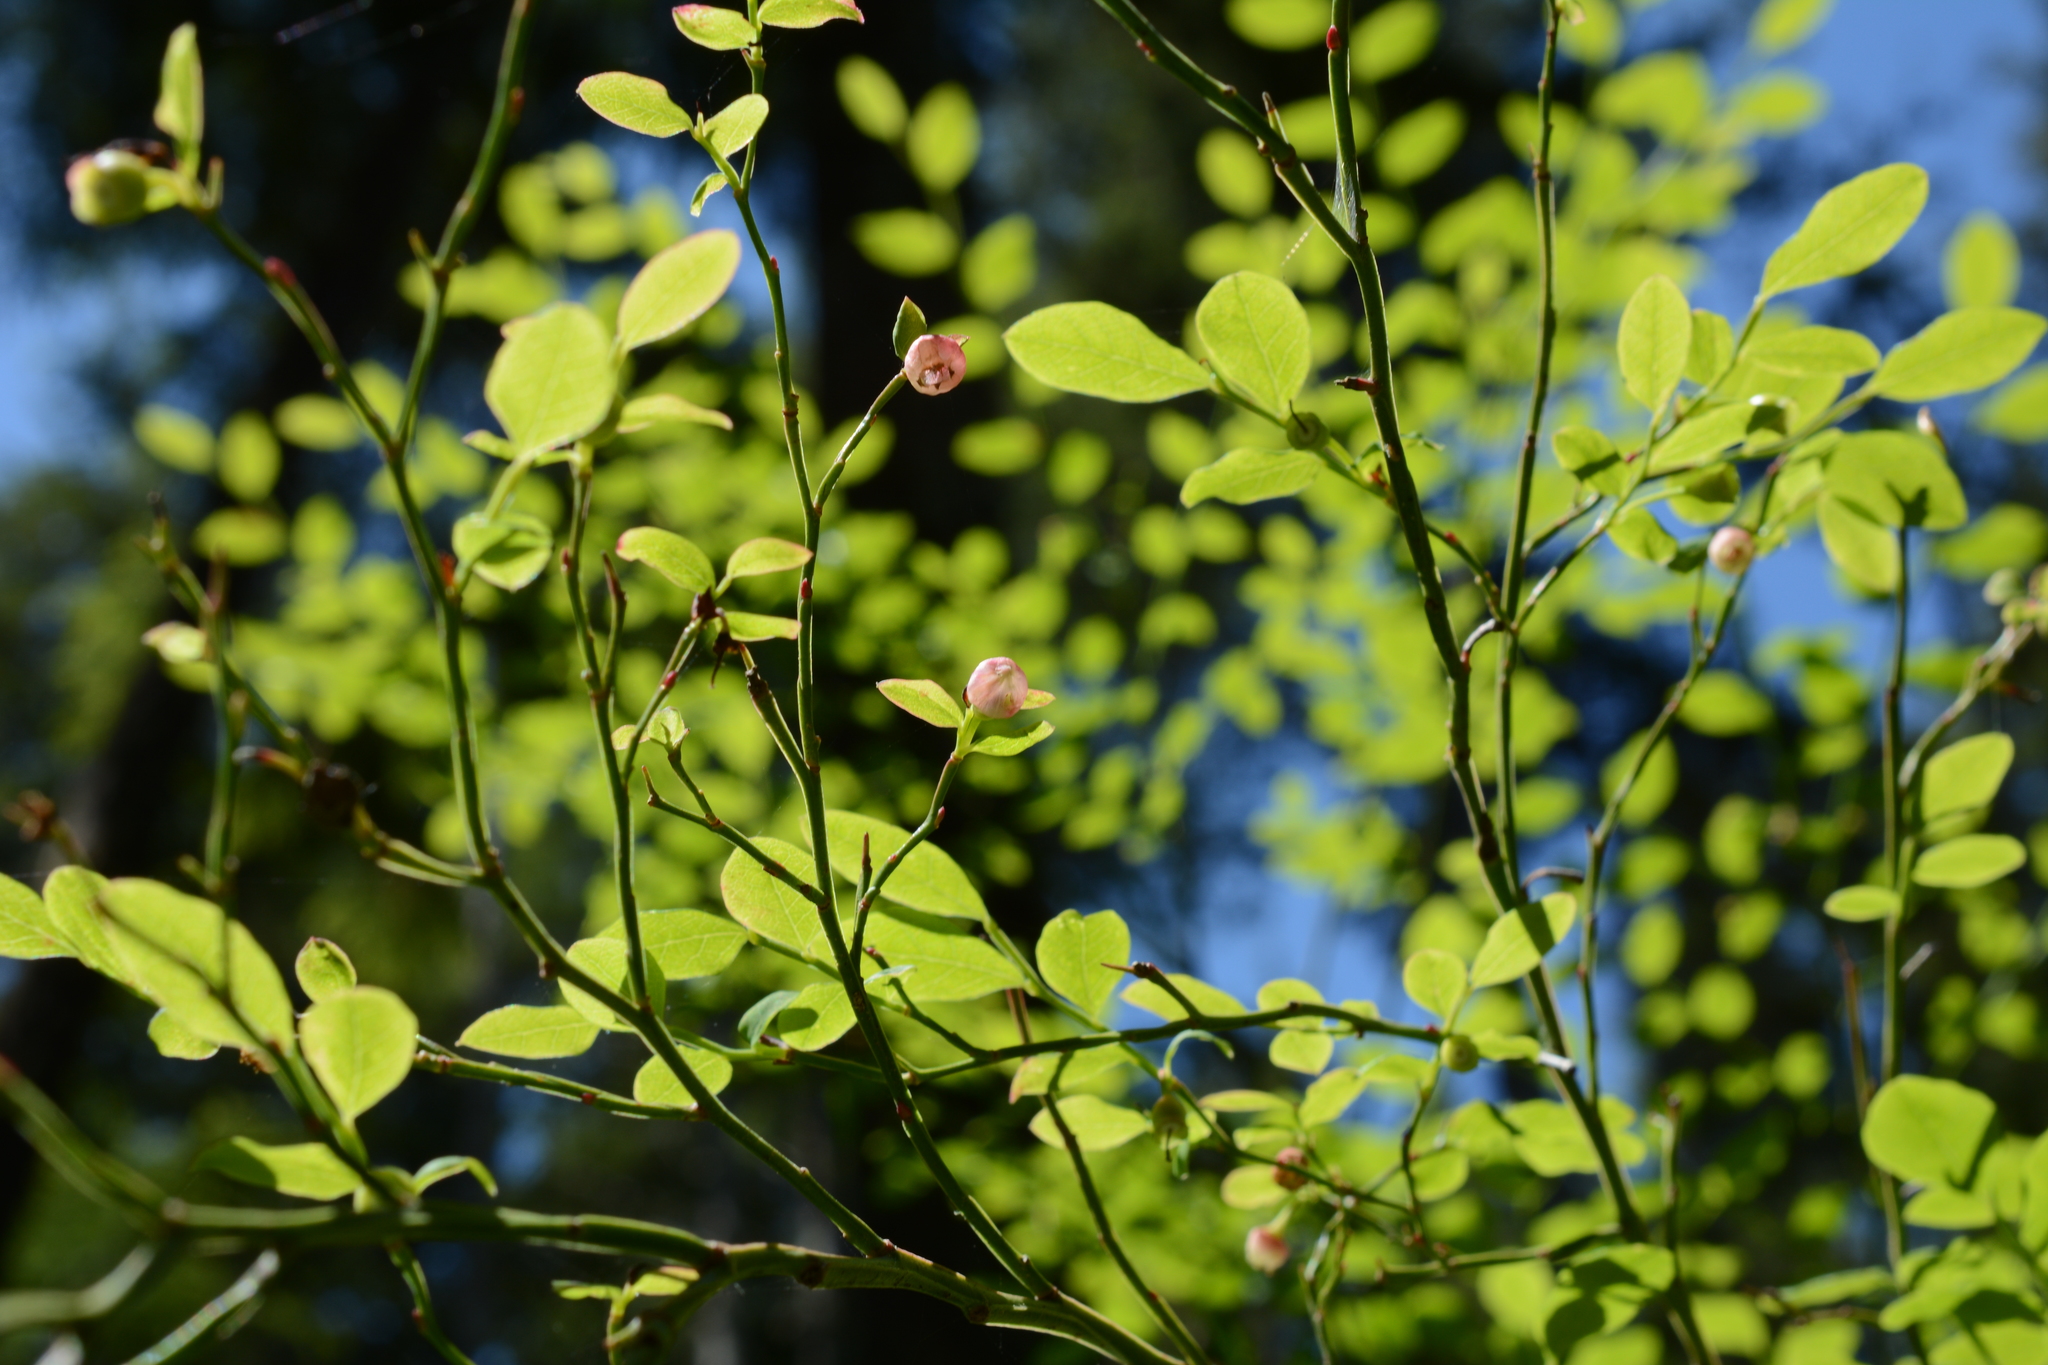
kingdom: Plantae
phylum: Tracheophyta
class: Magnoliopsida
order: Ericales
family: Ericaceae
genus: Vaccinium
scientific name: Vaccinium parvifolium
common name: Red-huckleberry
